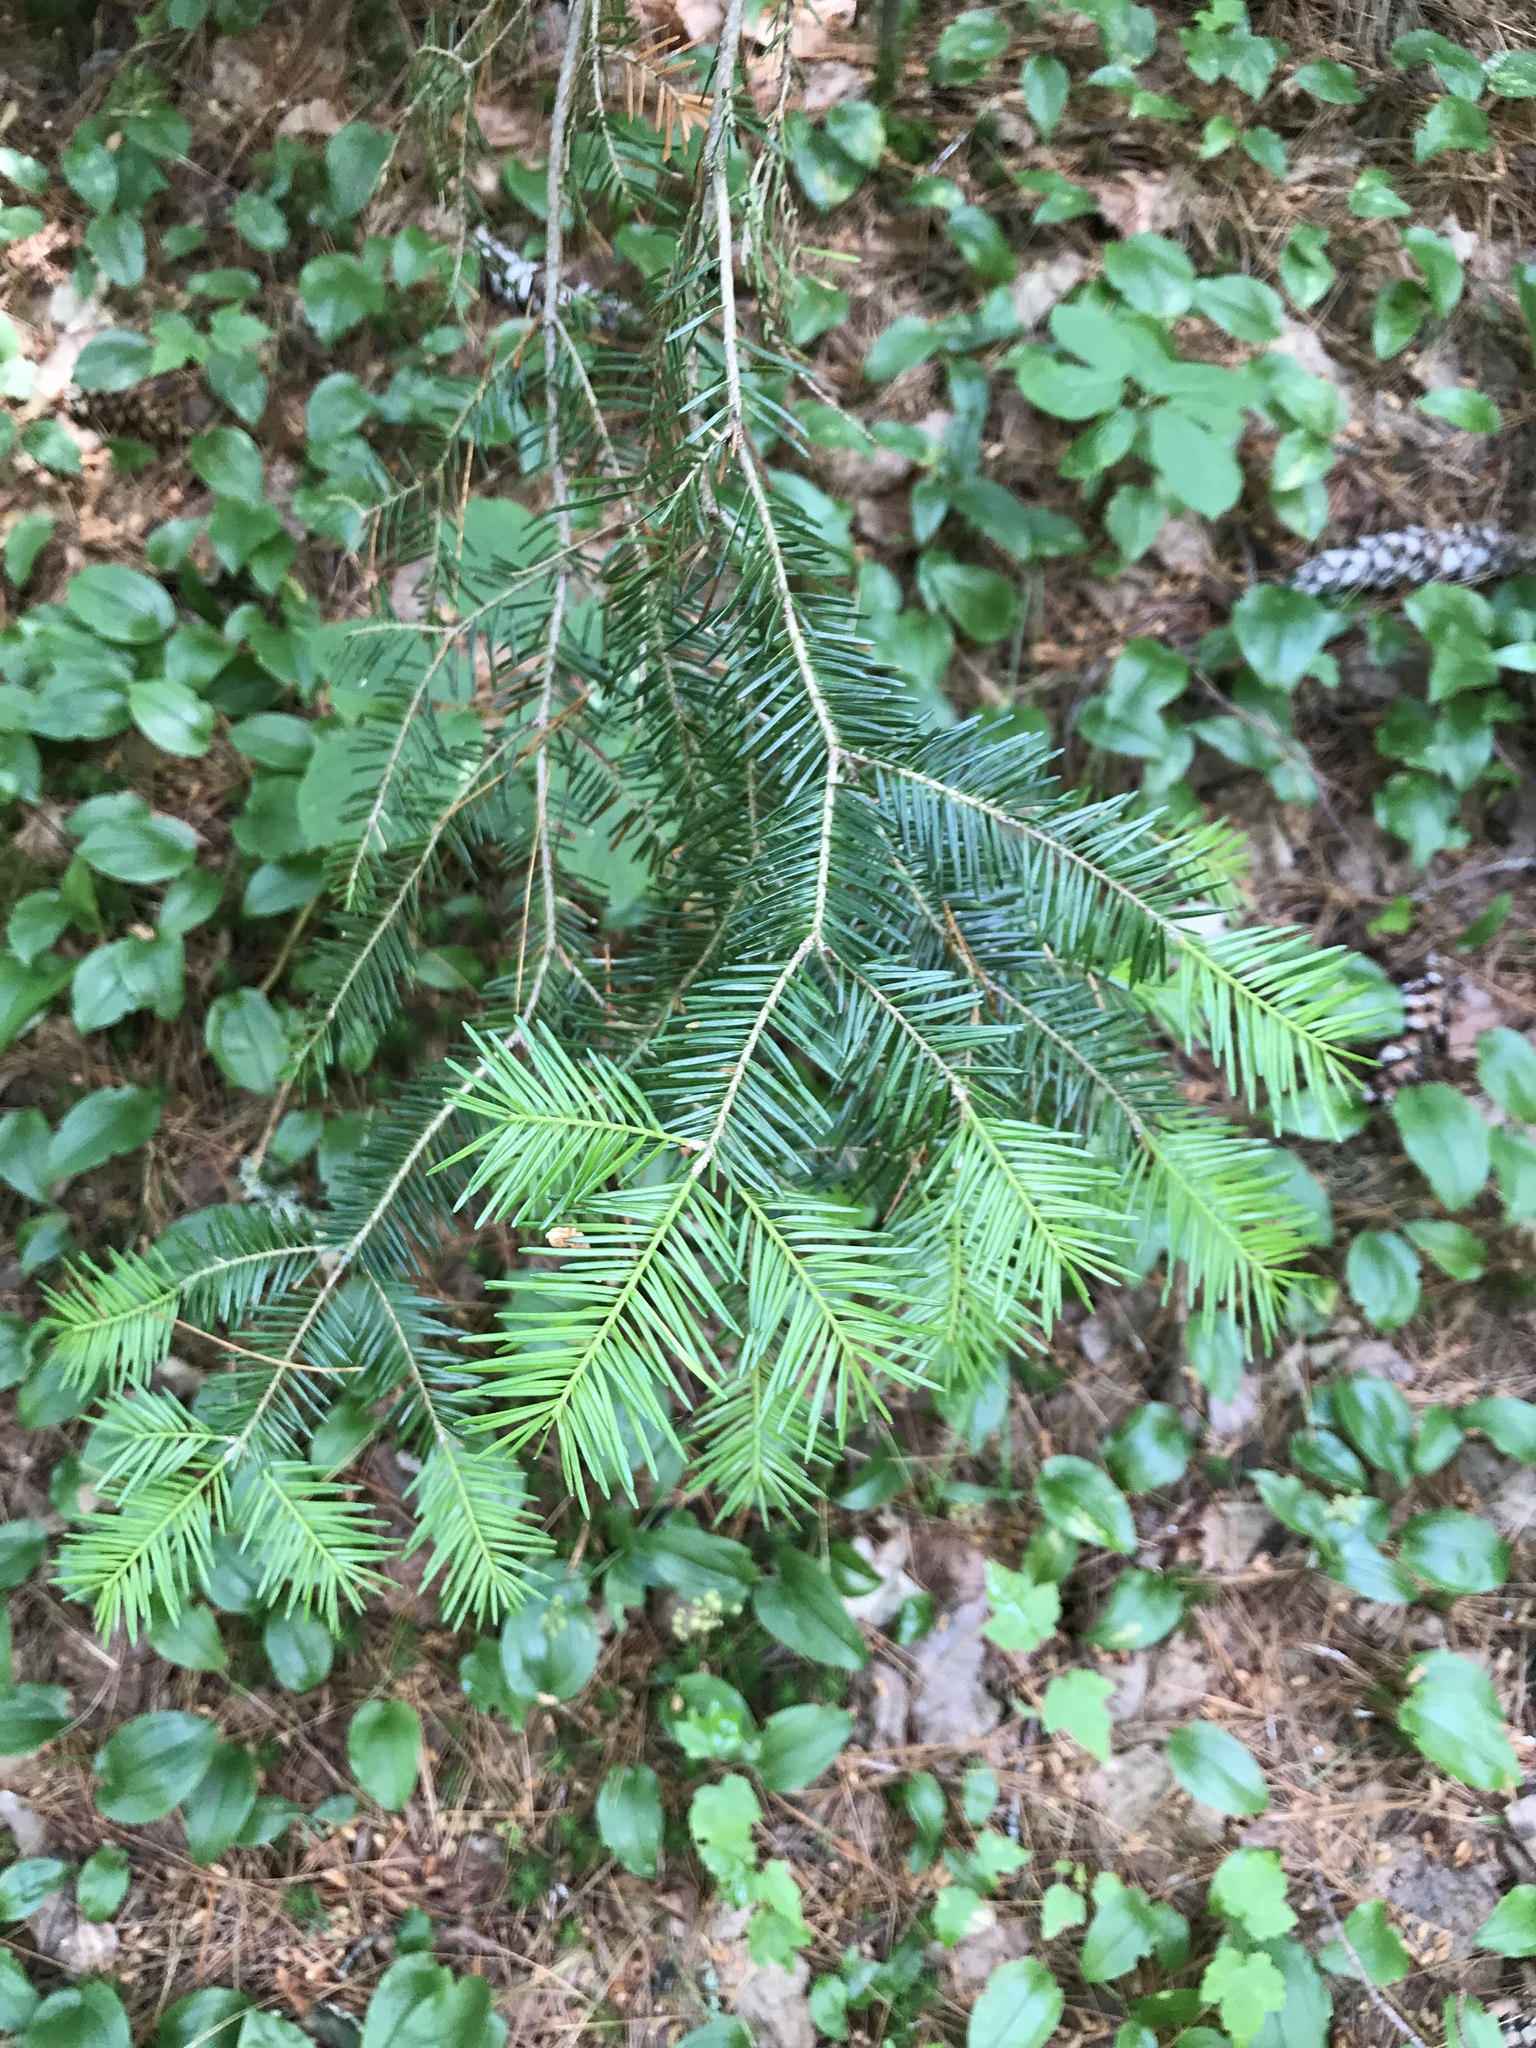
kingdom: Plantae
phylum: Tracheophyta
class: Pinopsida
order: Pinales
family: Pinaceae
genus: Abies
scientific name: Abies balsamea
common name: Balsam fir
